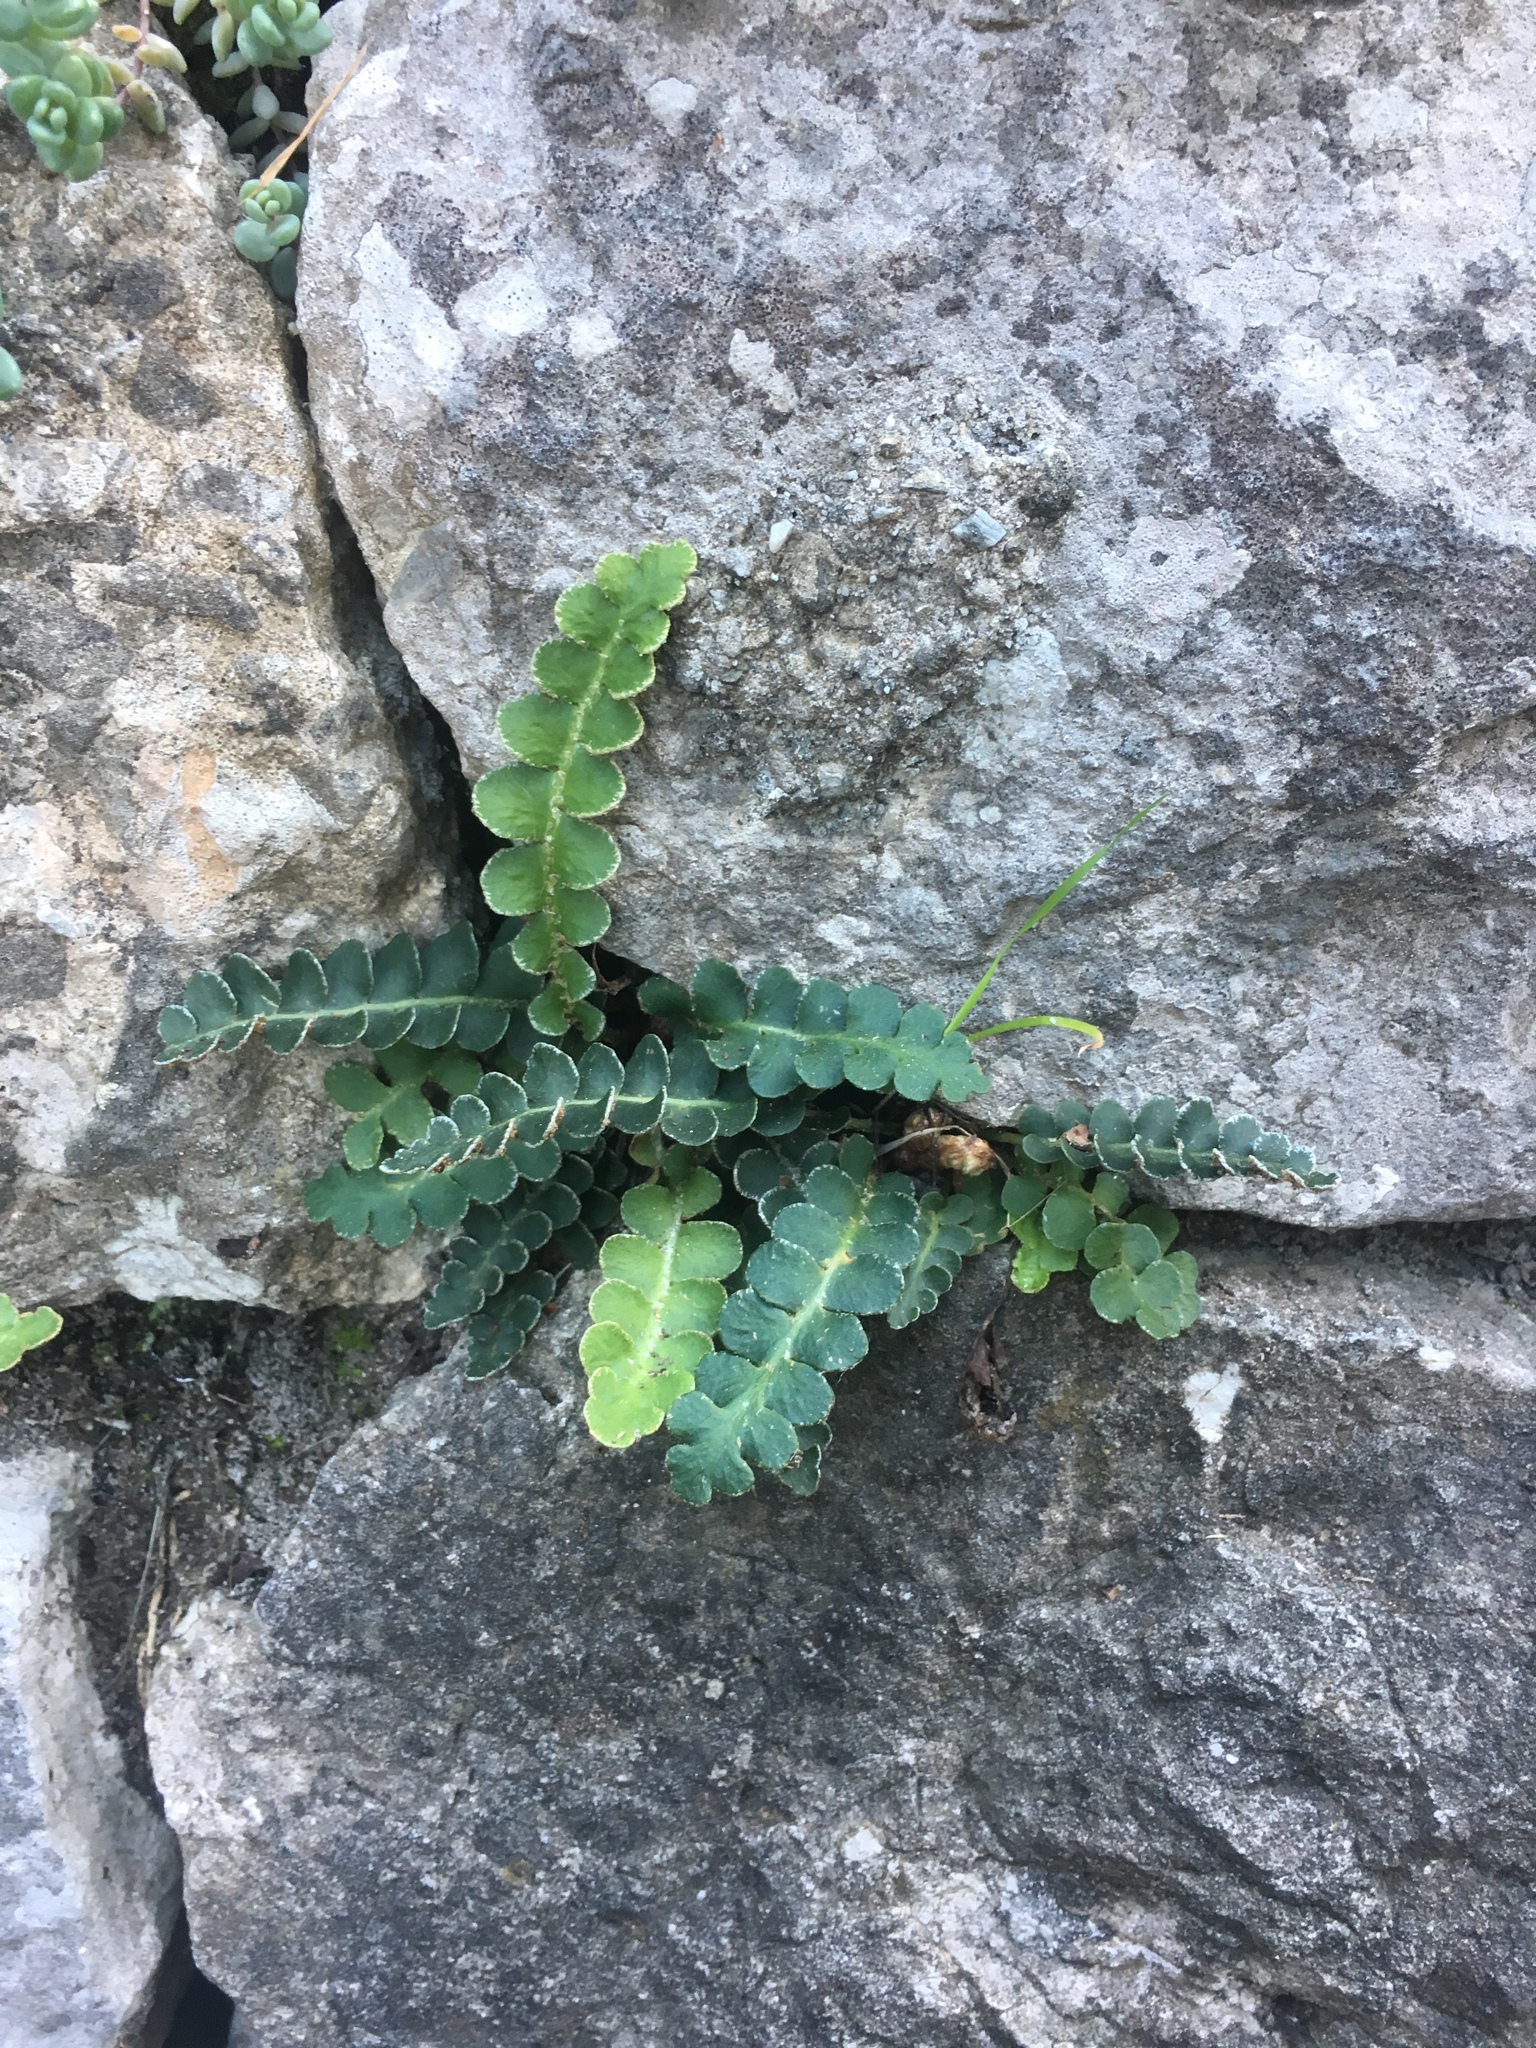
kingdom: Plantae
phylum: Tracheophyta
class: Polypodiopsida
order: Polypodiales
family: Aspleniaceae
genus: Asplenium
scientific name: Asplenium ceterach
